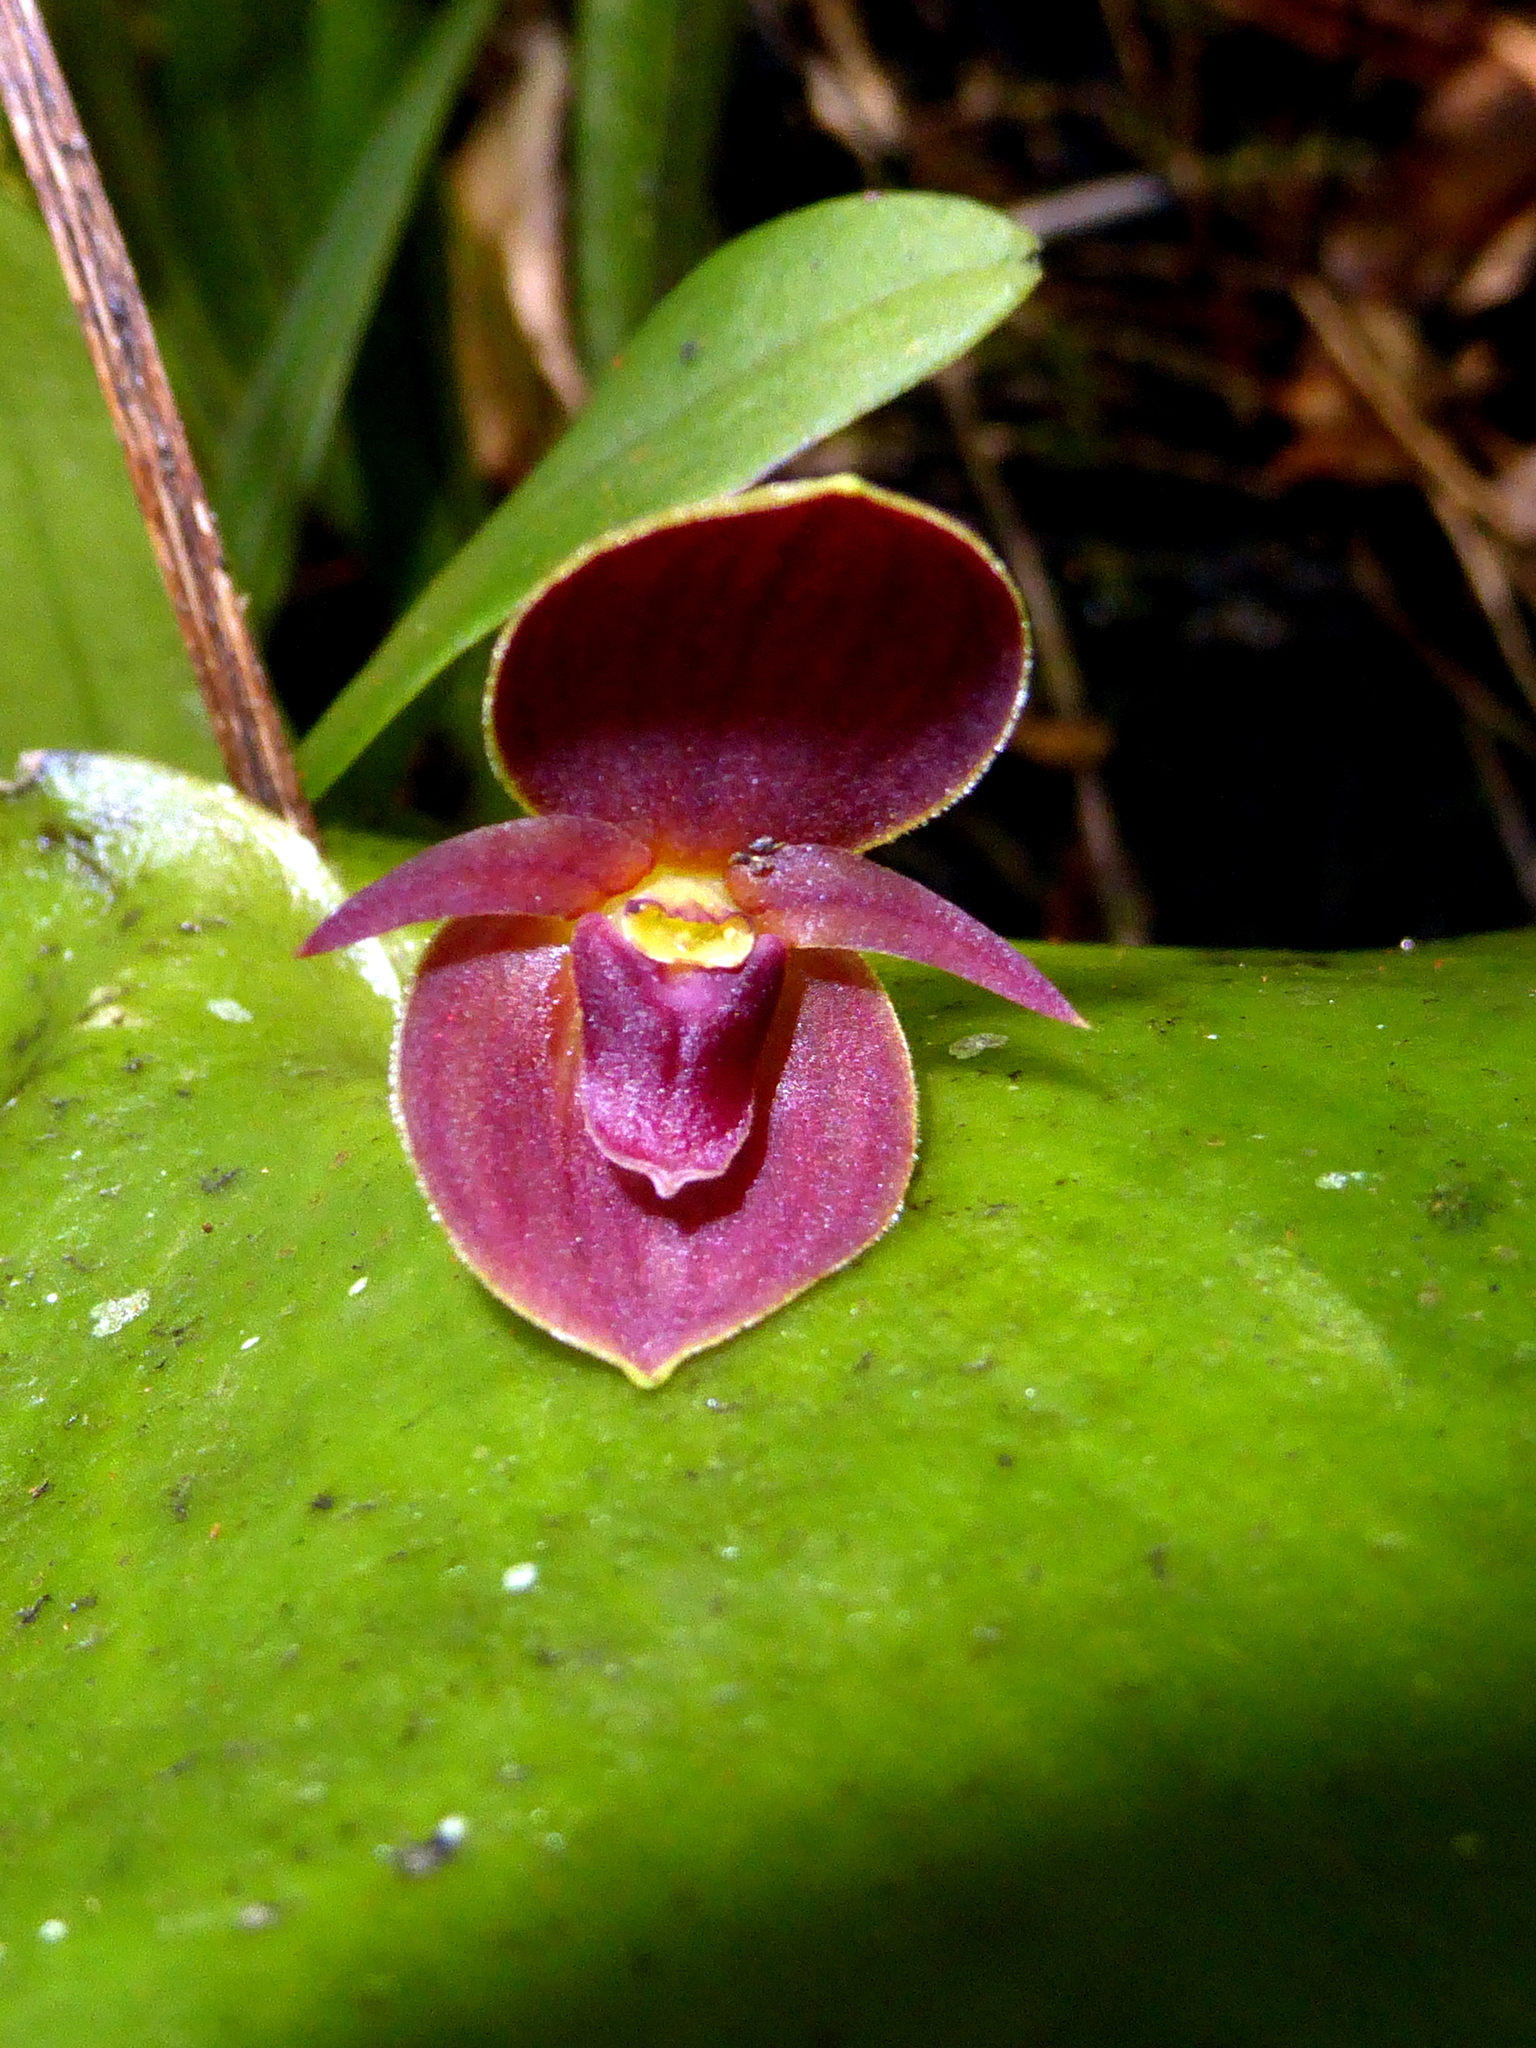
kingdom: Plantae
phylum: Tracheophyta
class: Liliopsida
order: Asparagales
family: Orchidaceae
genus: Pleurothallis
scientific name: Pleurothallis cardiothallis
